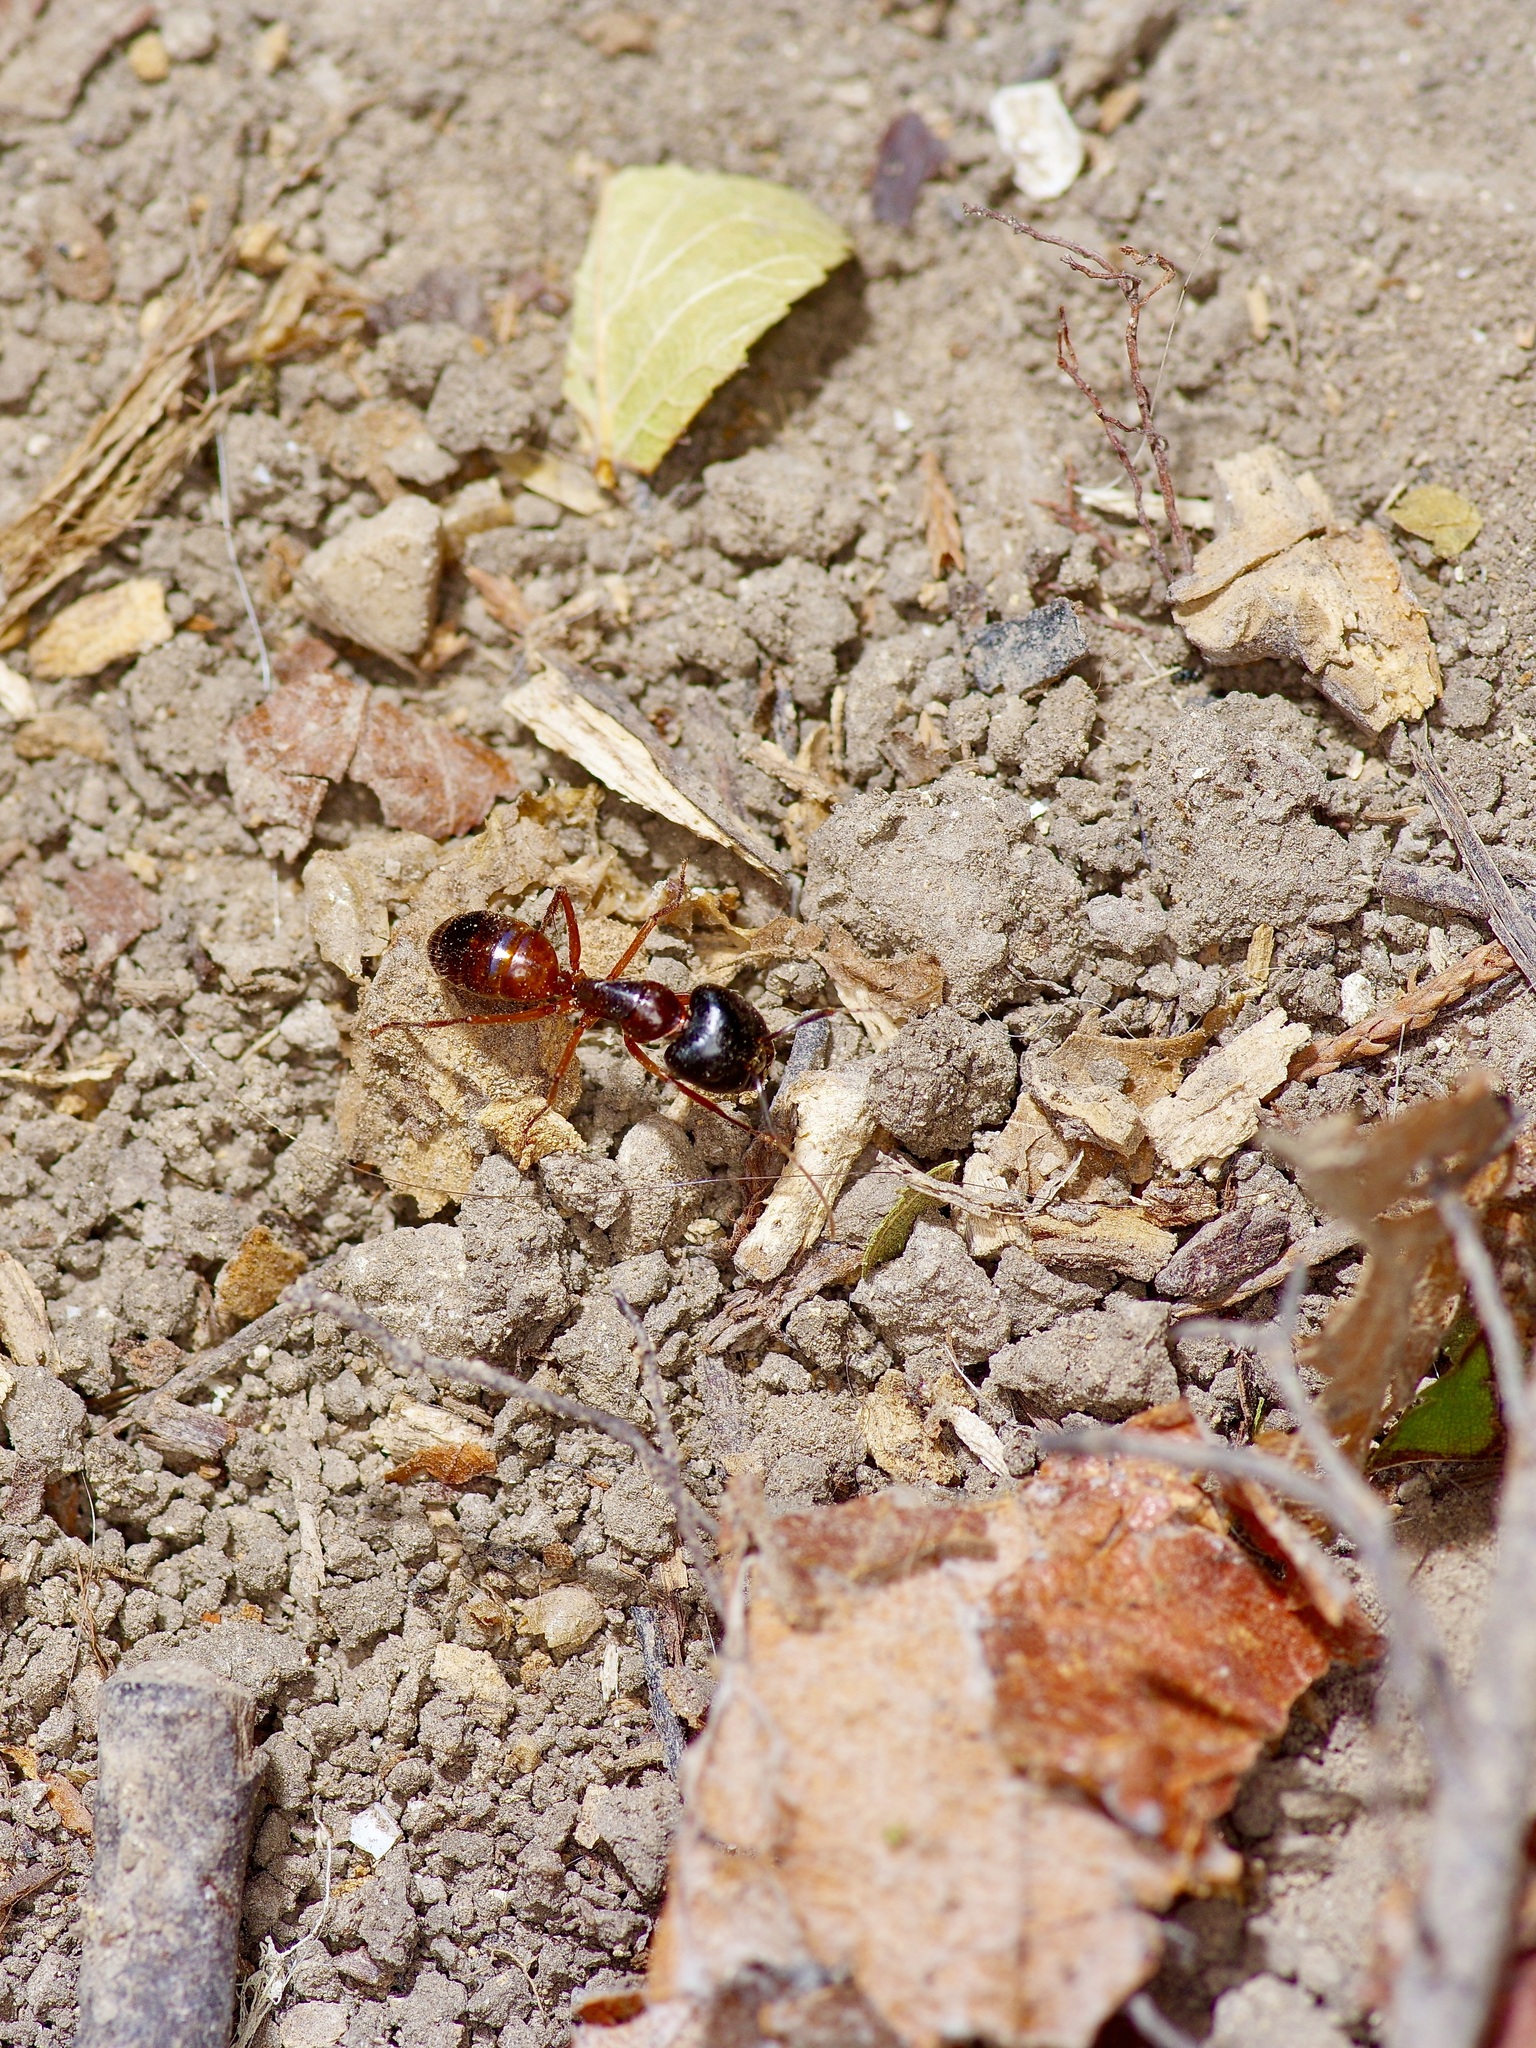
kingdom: Animalia
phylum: Arthropoda
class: Insecta
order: Hymenoptera
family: Formicidae
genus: Camponotus
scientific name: Camponotus americanus
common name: American carpenter ant
